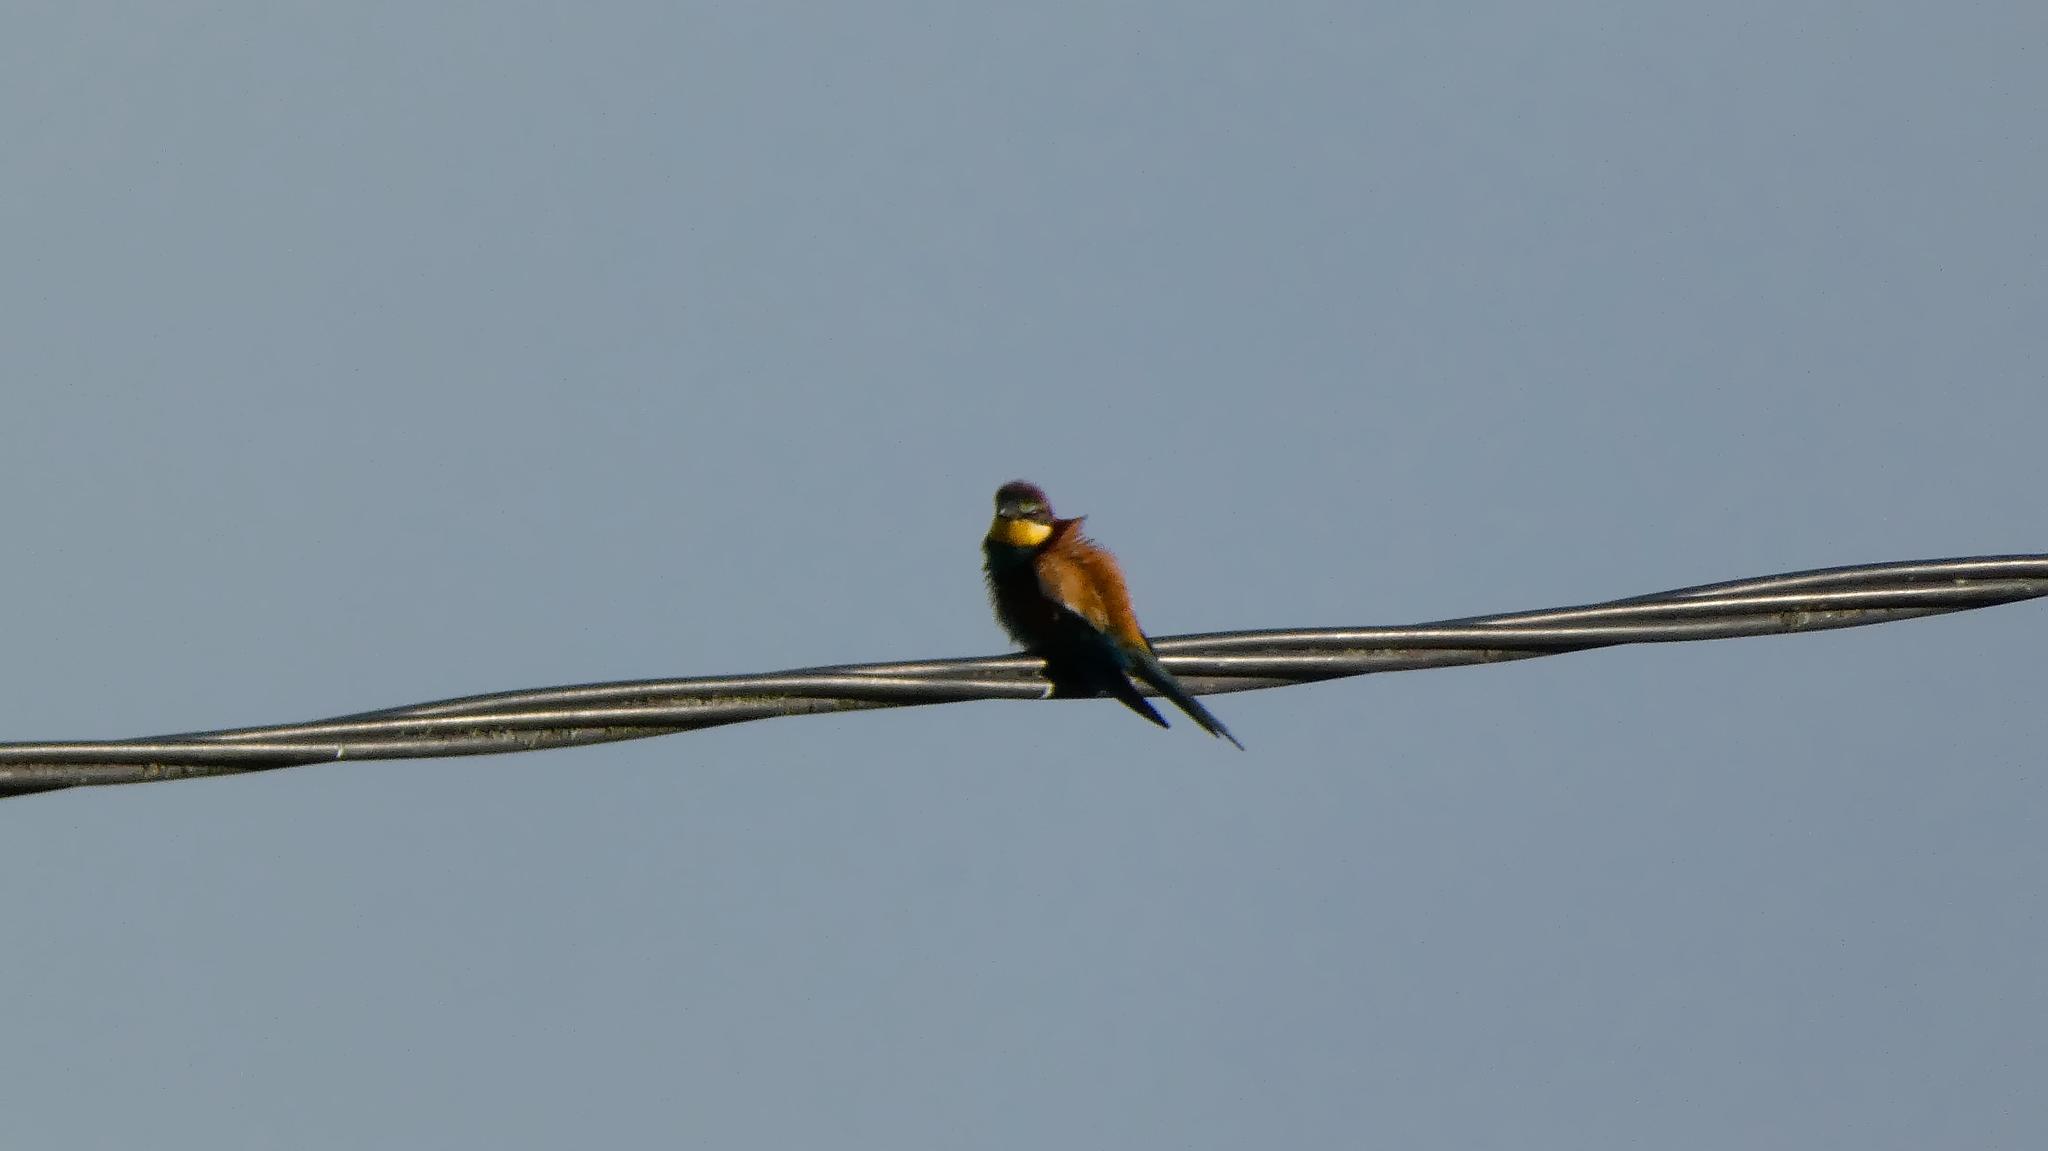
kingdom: Animalia
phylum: Chordata
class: Aves
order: Coraciiformes
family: Meropidae
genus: Merops
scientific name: Merops apiaster
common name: European bee-eater
